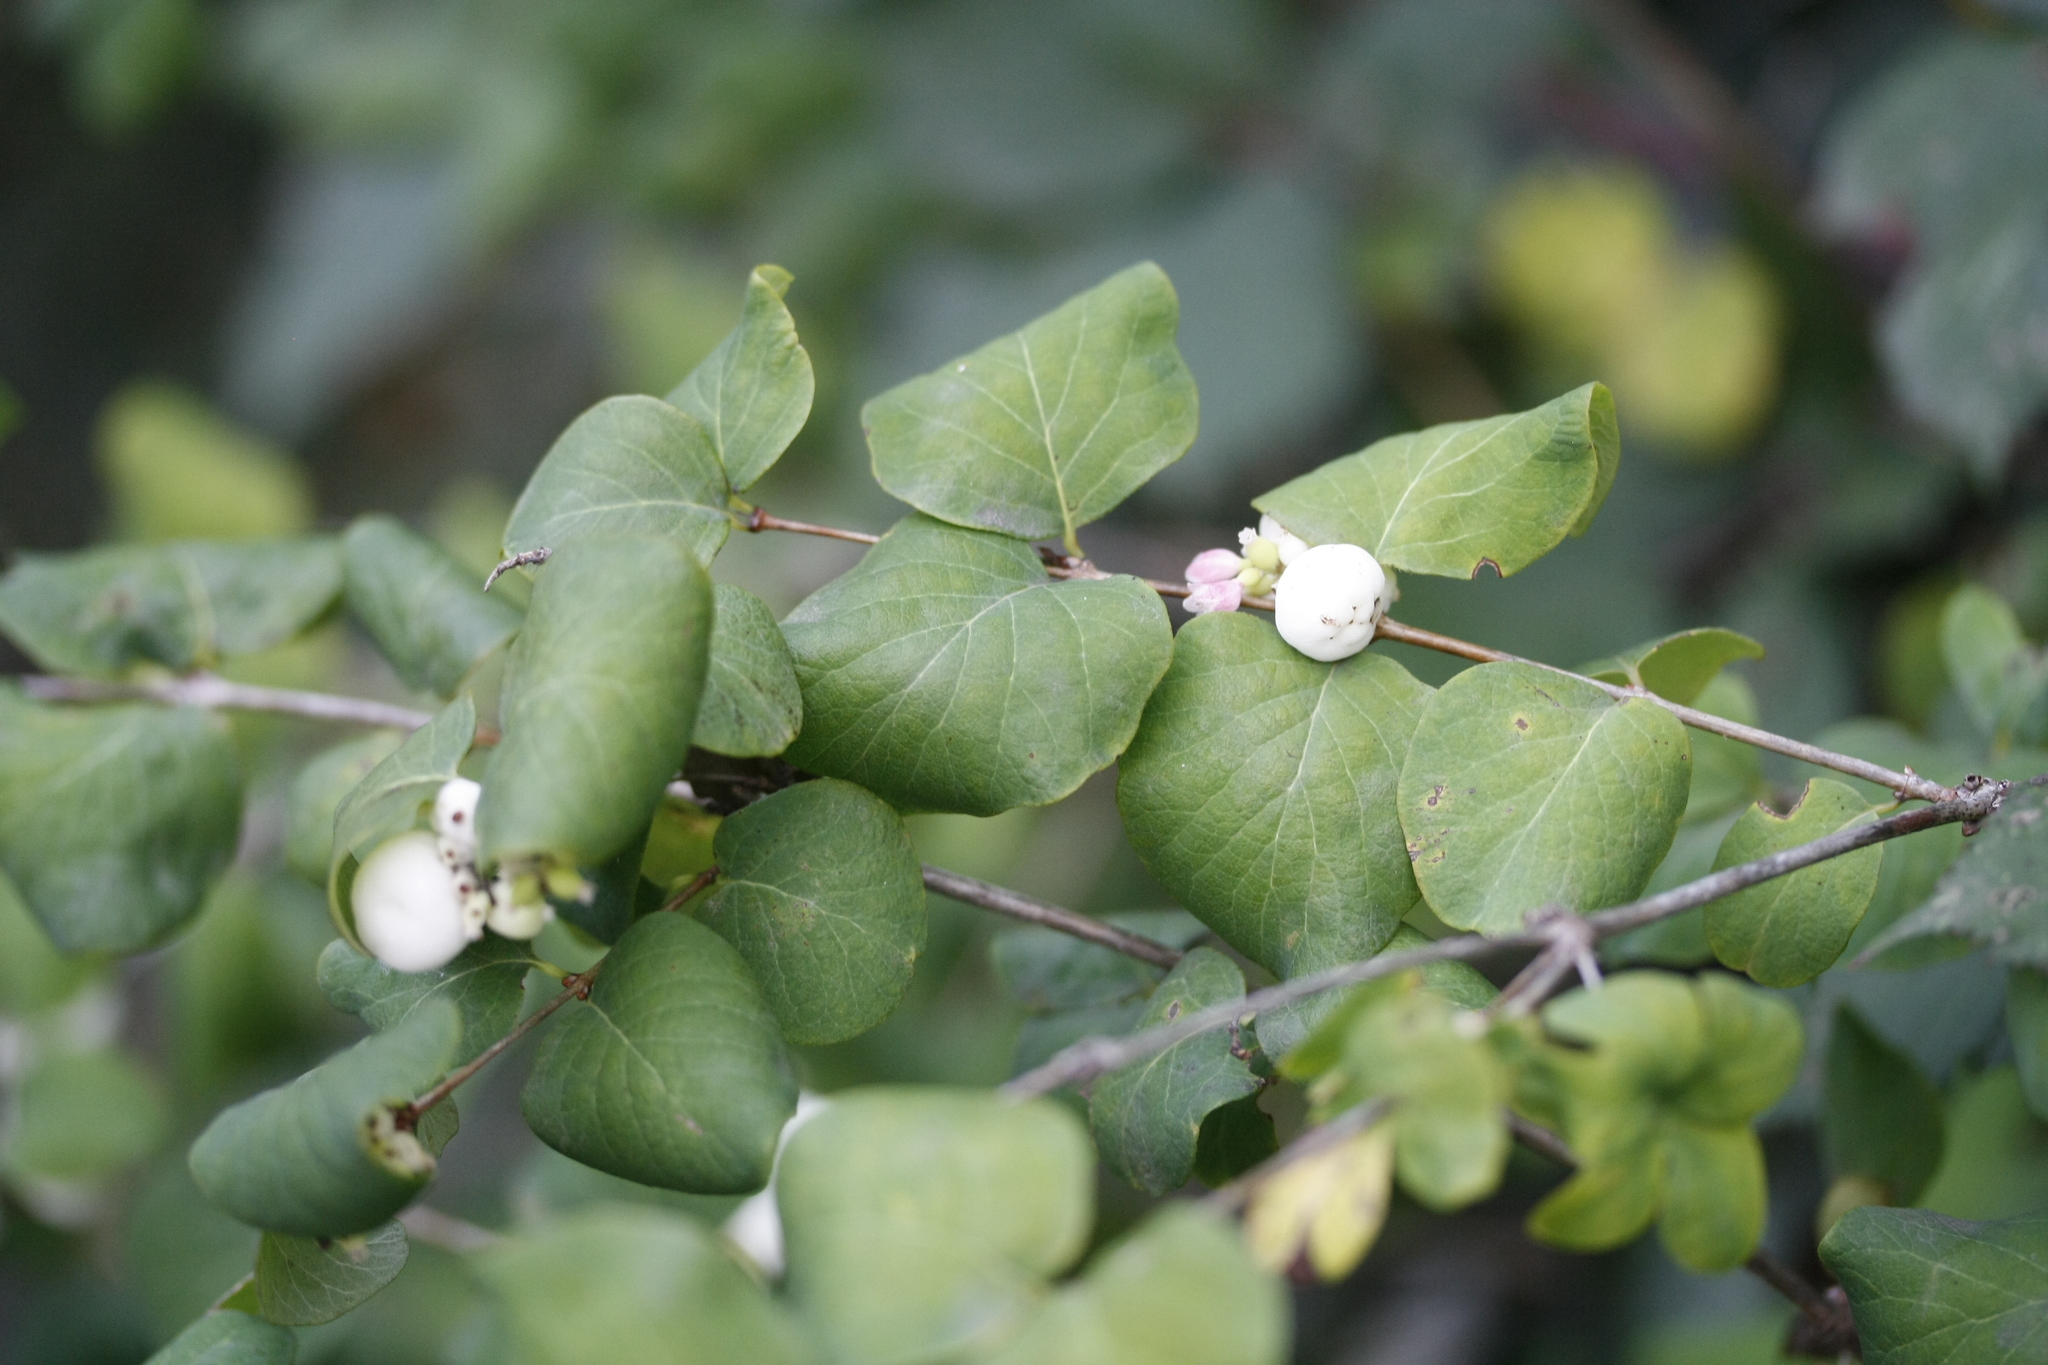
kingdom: Plantae
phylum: Tracheophyta
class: Magnoliopsida
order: Dipsacales
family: Caprifoliaceae
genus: Symphoricarpos
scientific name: Symphoricarpos albus
